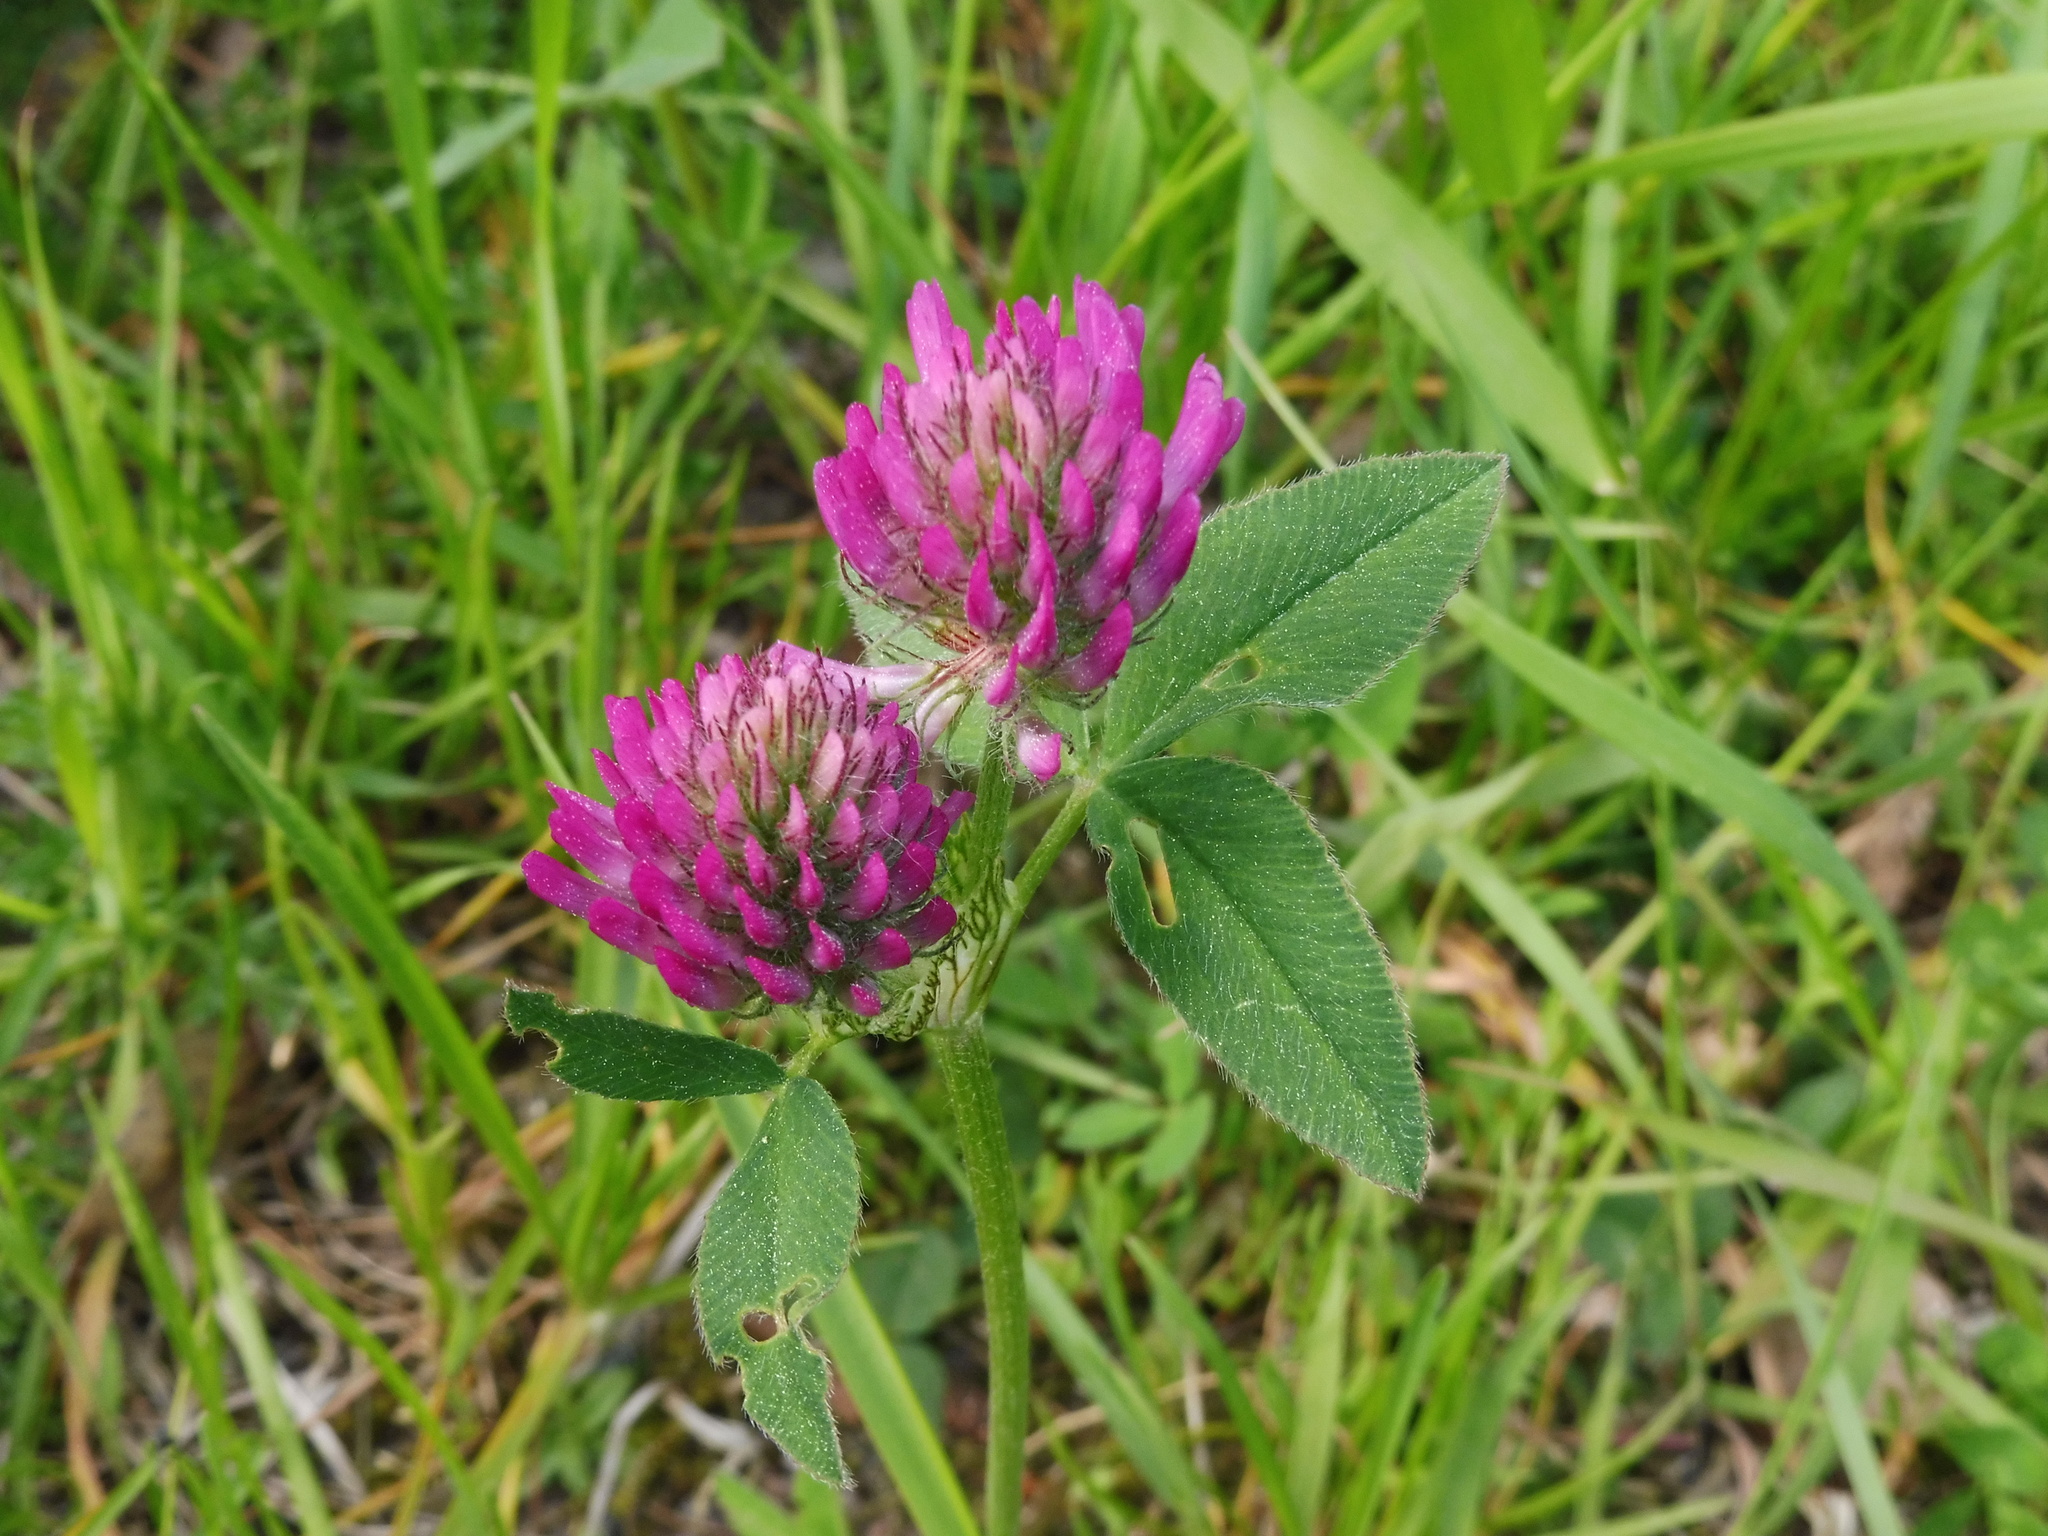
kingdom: Plantae
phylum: Tracheophyta
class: Magnoliopsida
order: Fabales
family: Fabaceae
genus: Trifolium
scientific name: Trifolium medium
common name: Zigzag clover
